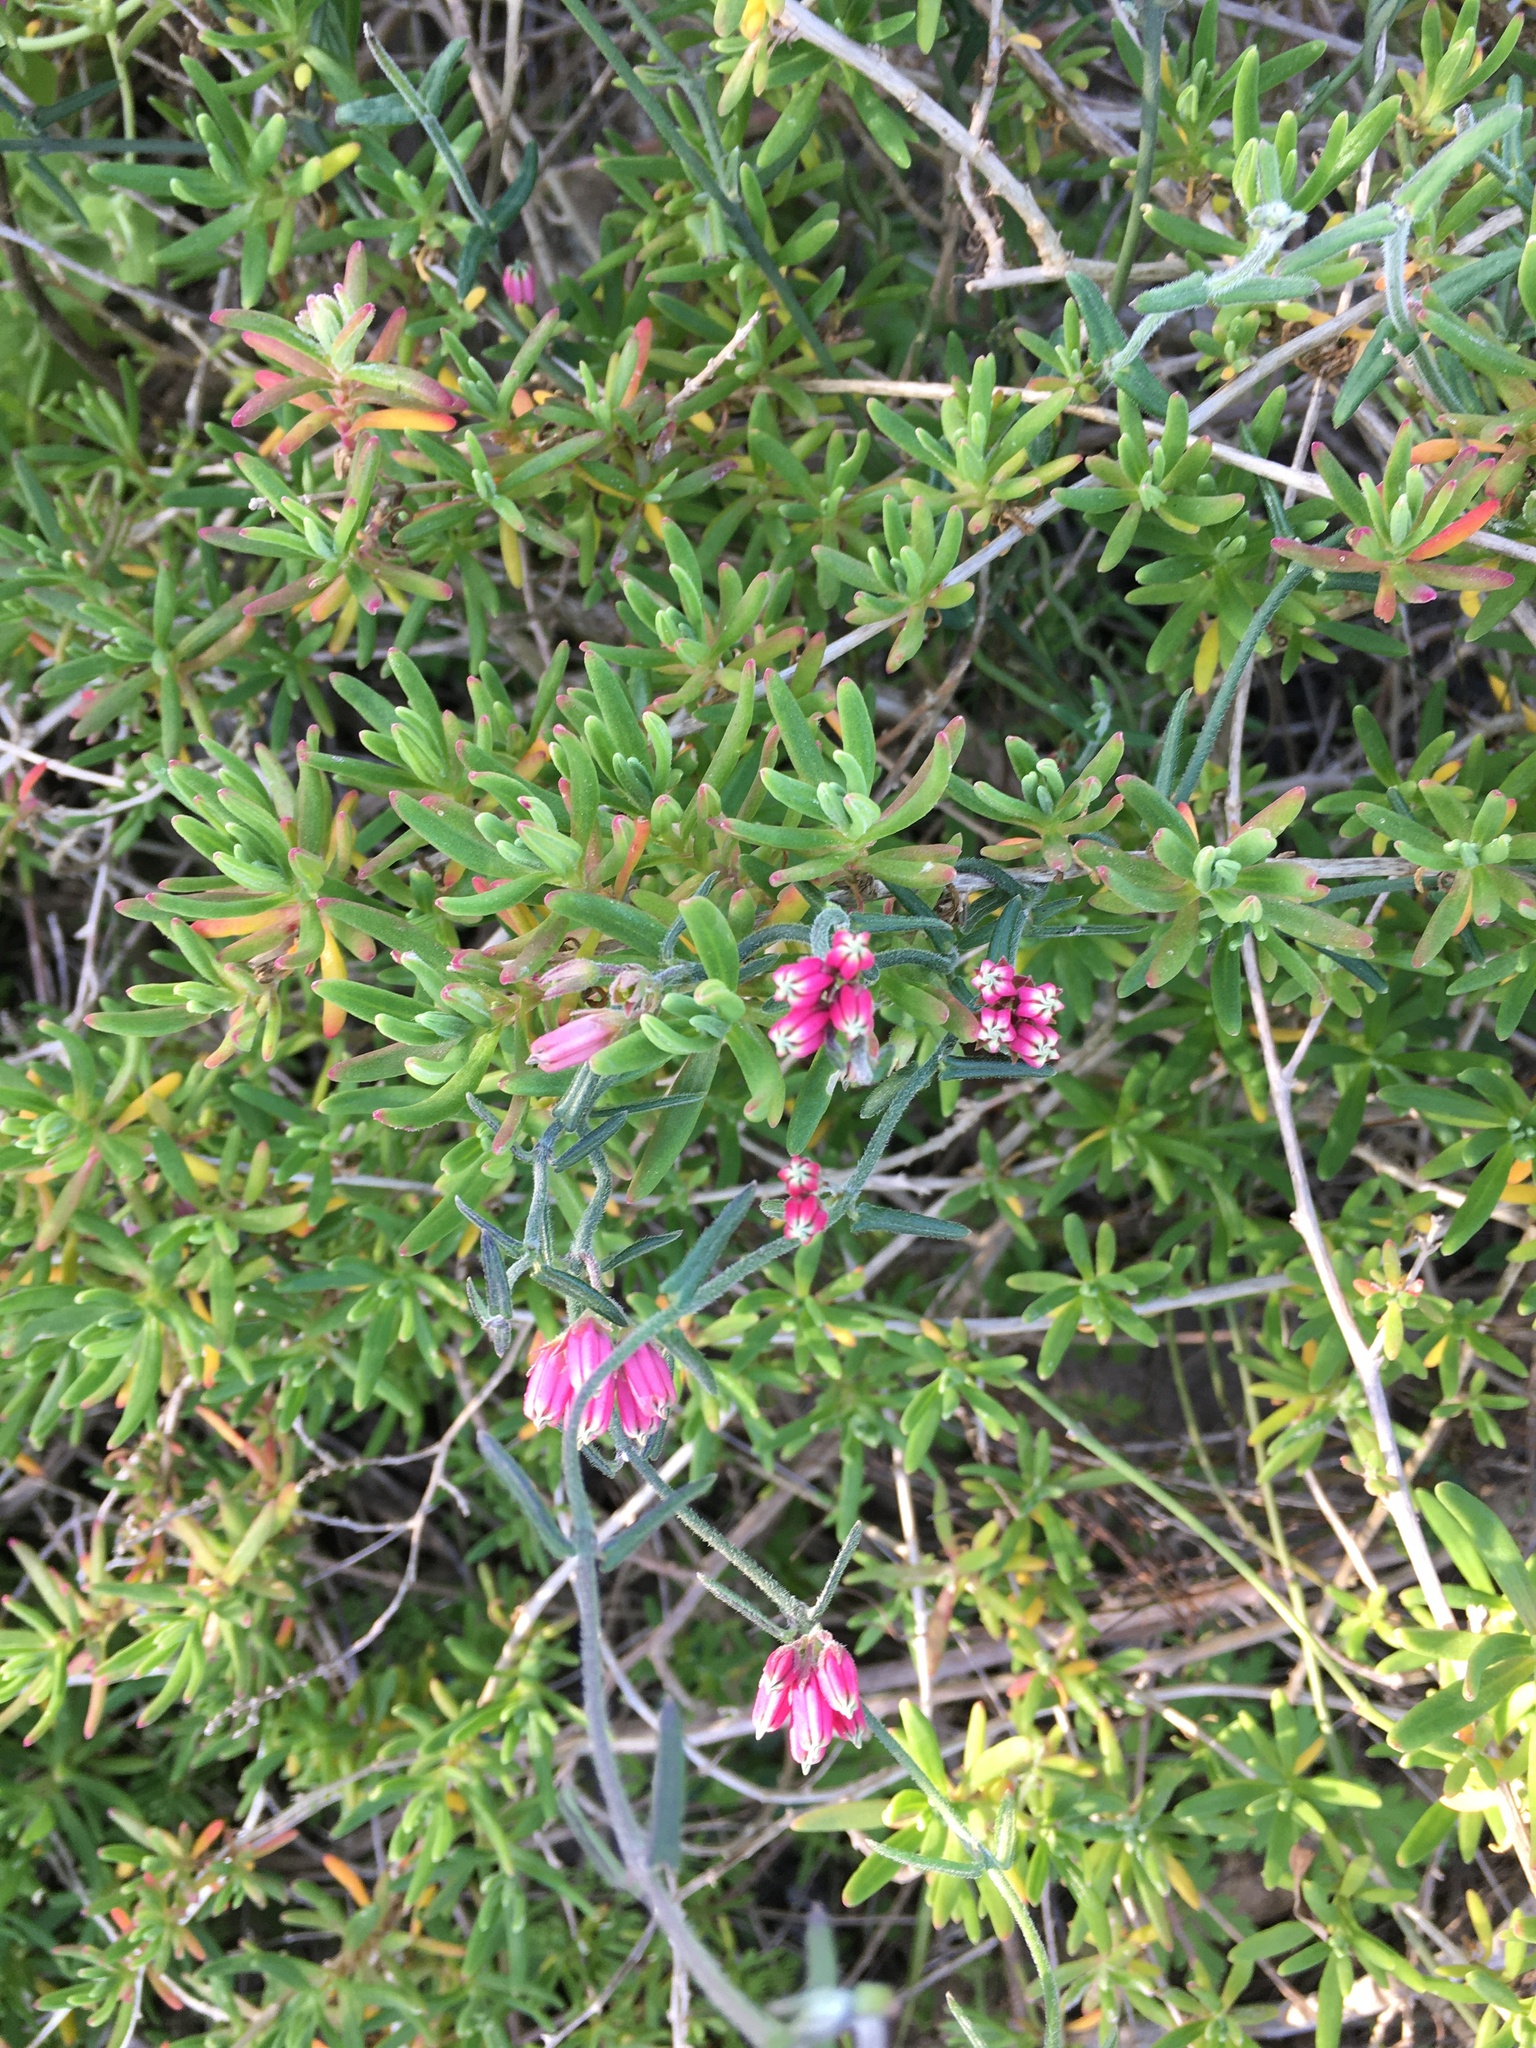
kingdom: Plantae
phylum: Tracheophyta
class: Magnoliopsida
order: Gentianales
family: Apocynaceae
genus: Microloma
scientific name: Microloma sagittatum
